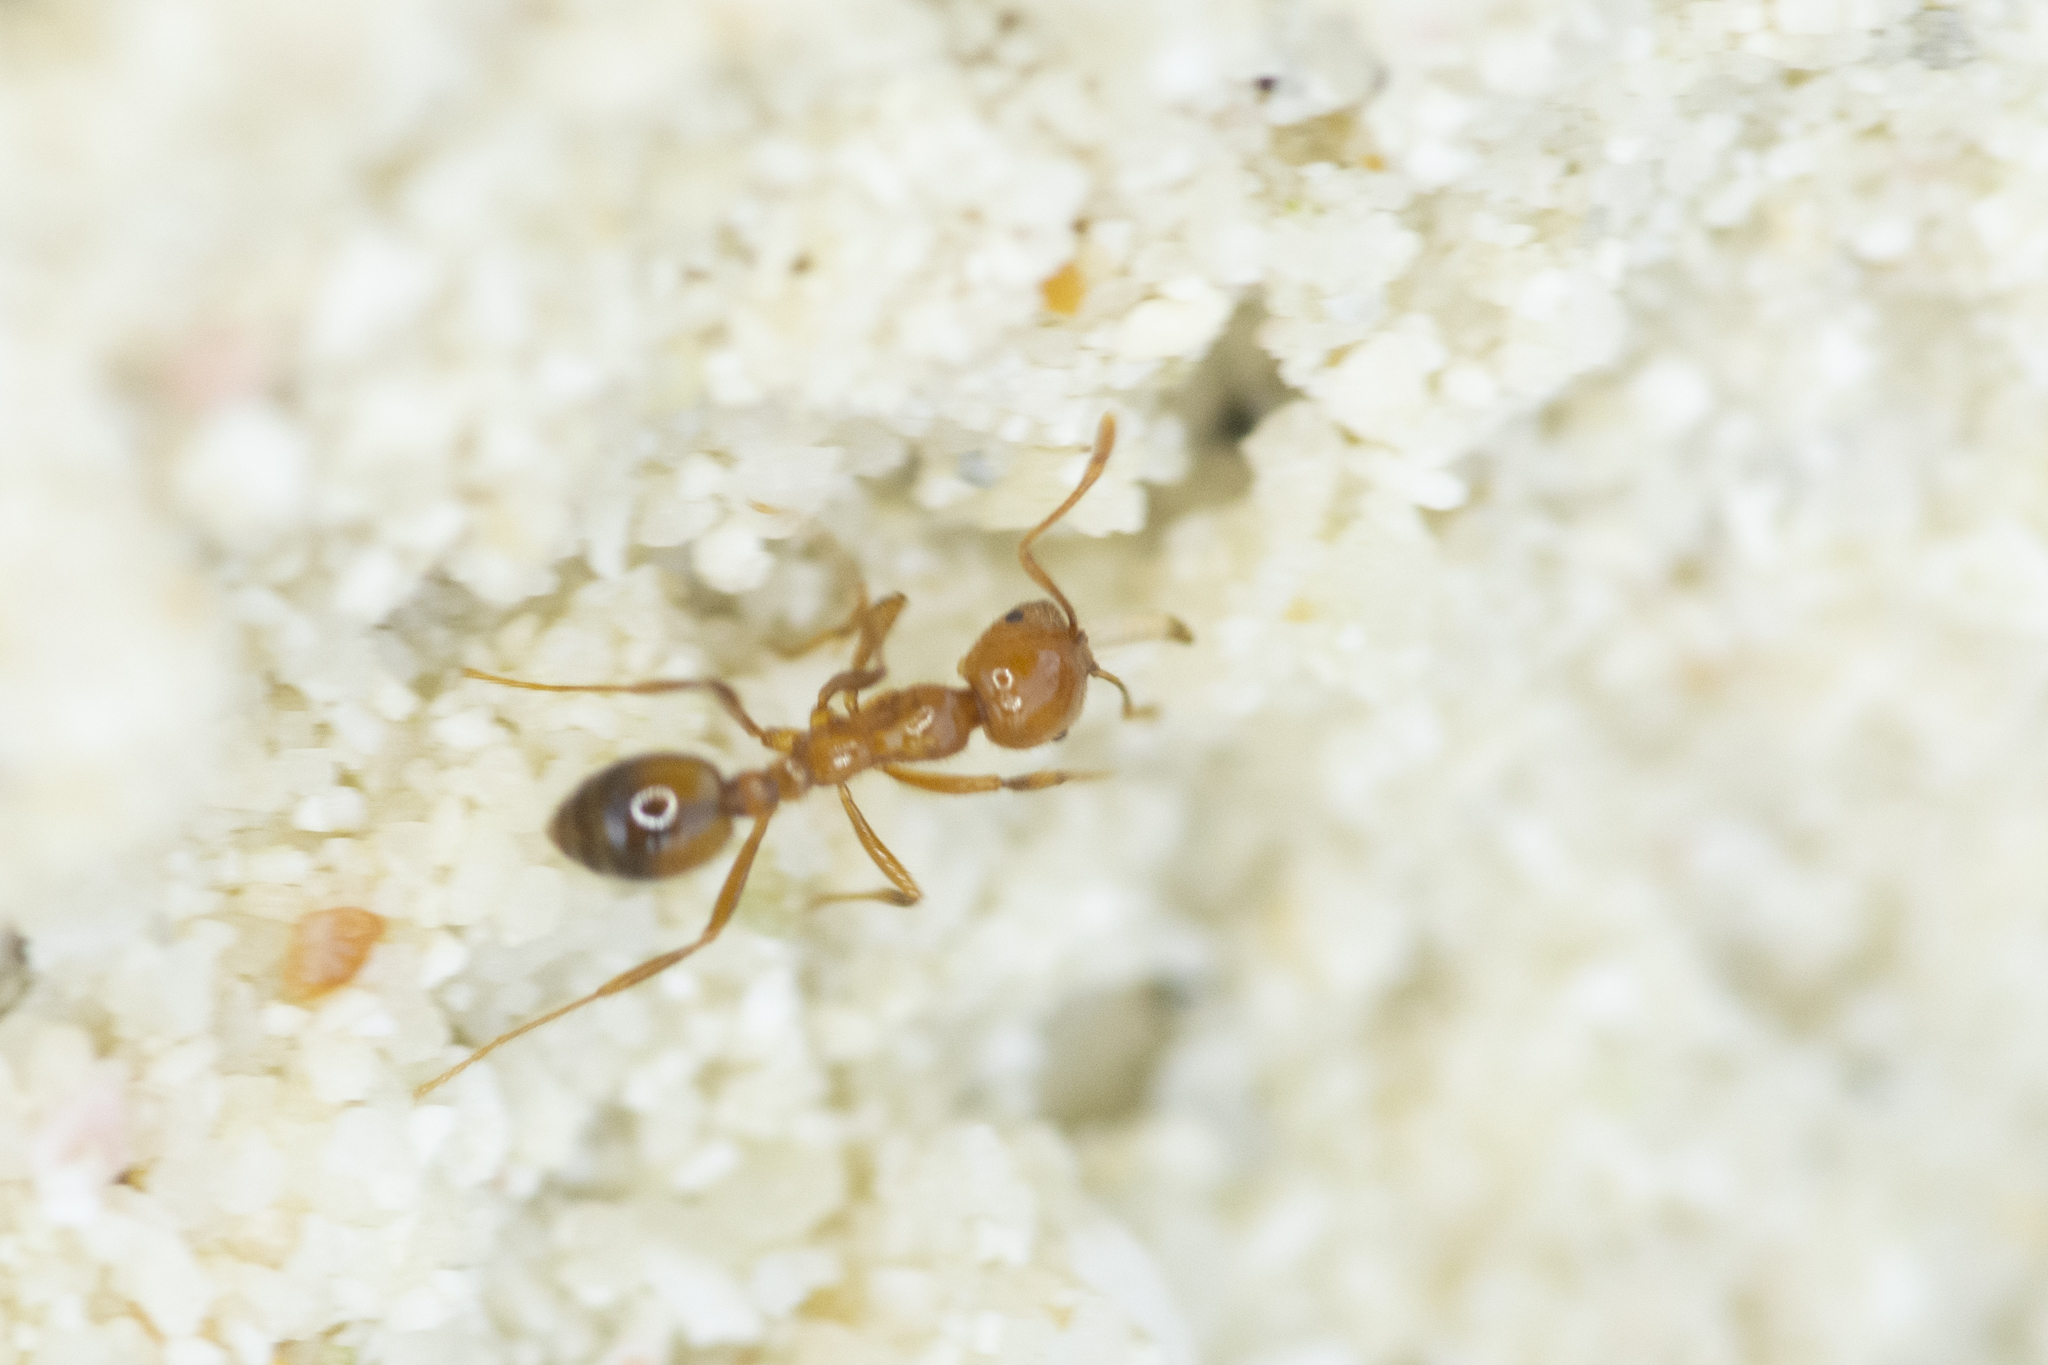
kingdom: Animalia
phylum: Arthropoda
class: Insecta
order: Hymenoptera
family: Formicidae
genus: Solenopsis
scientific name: Solenopsis geminata
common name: Tropical fire ant
